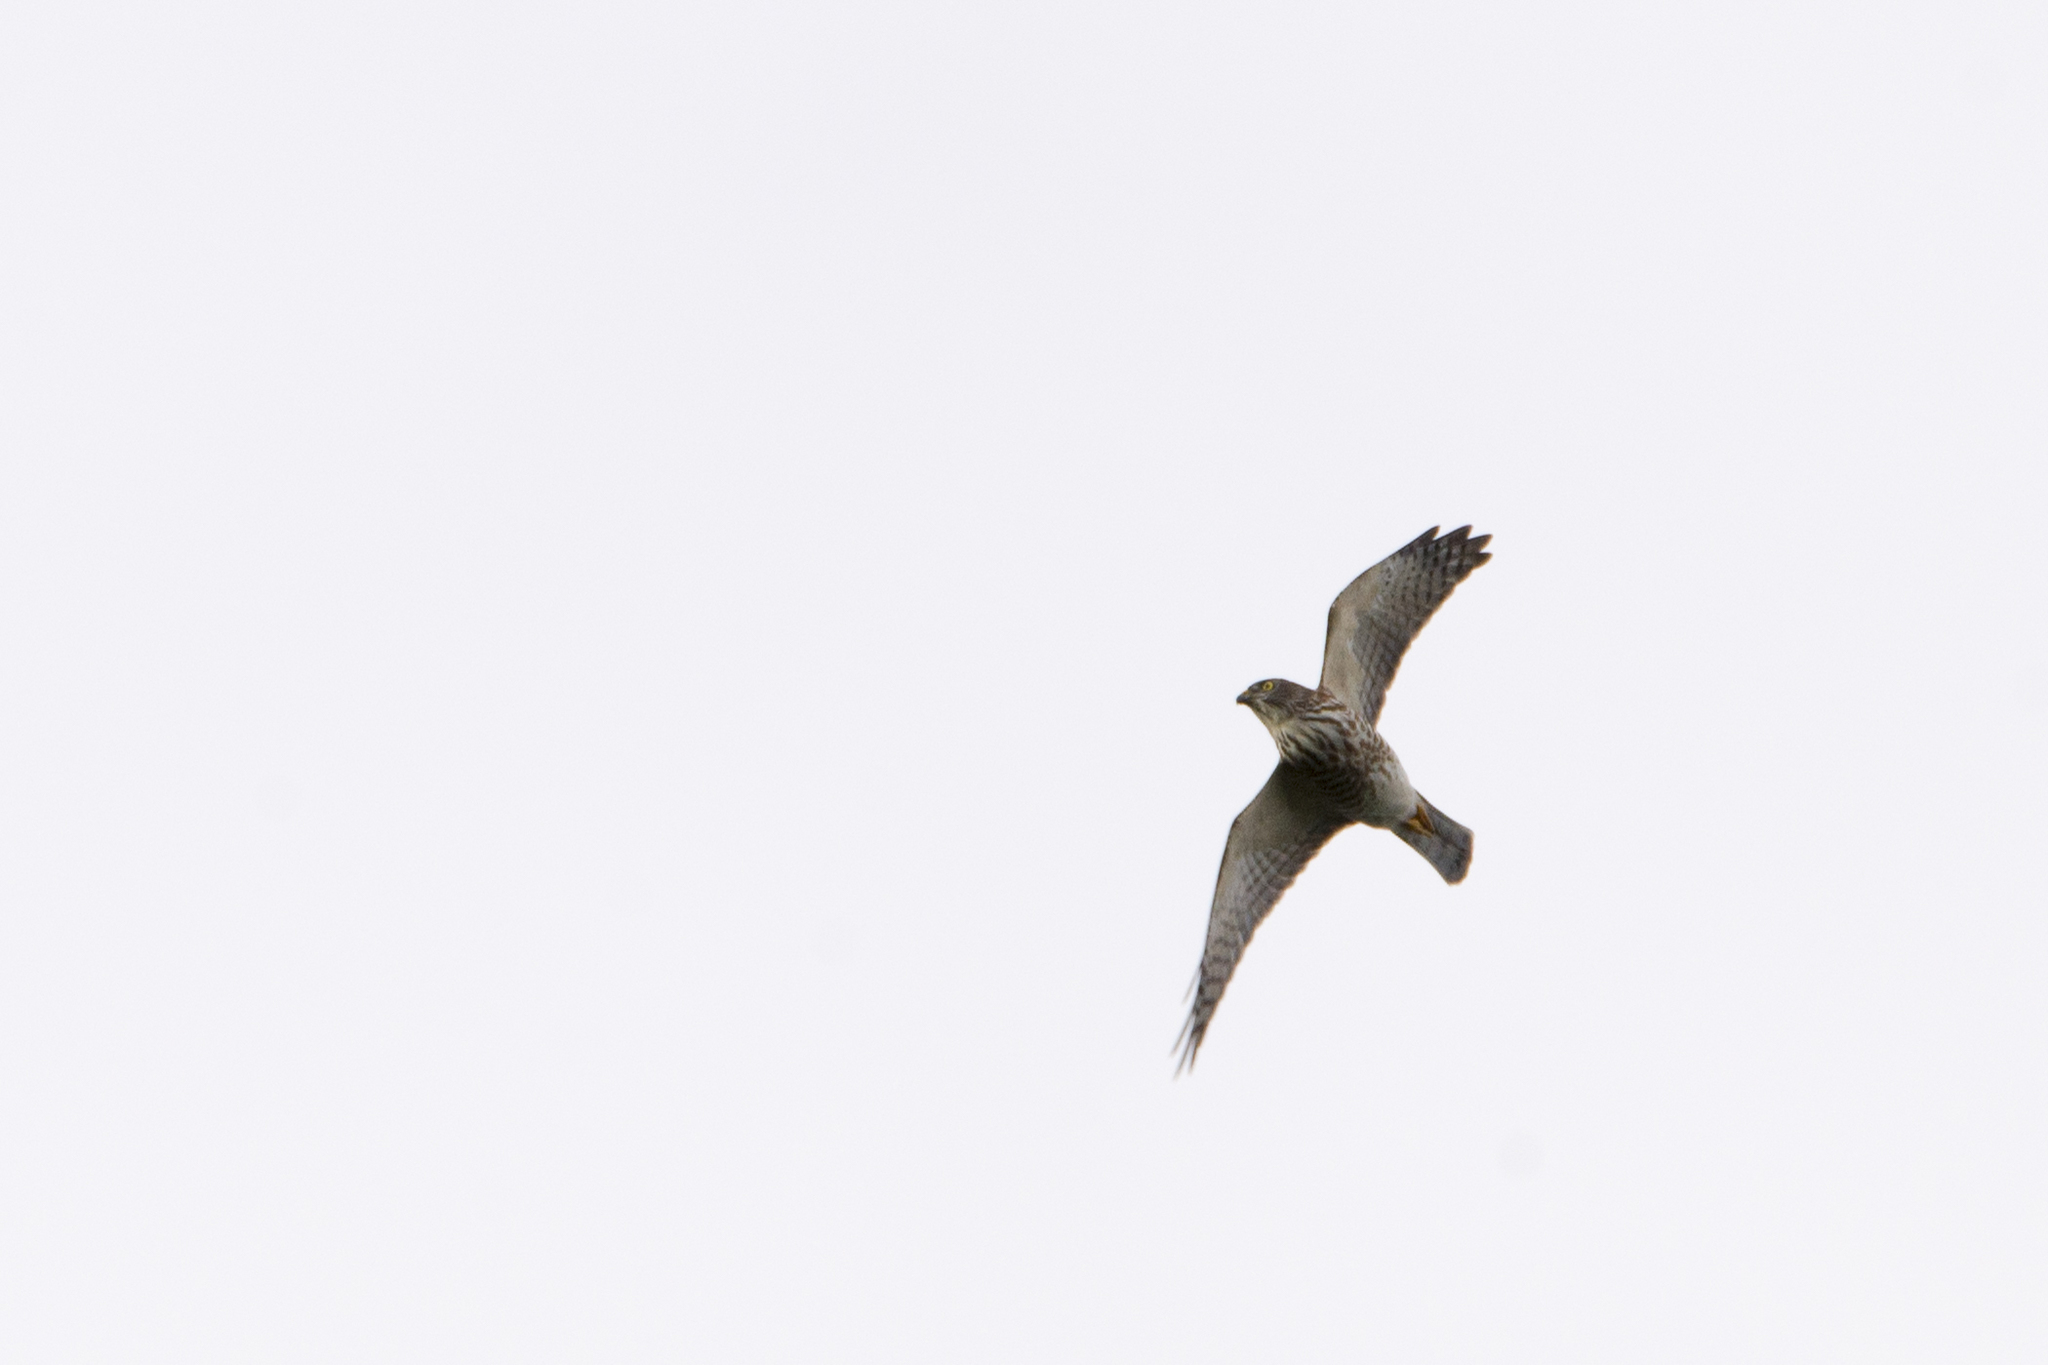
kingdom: Animalia
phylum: Chordata
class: Aves
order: Accipitriformes
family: Accipitridae
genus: Accipiter
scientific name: Accipiter soloensis
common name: Chinese sparrowhawk
